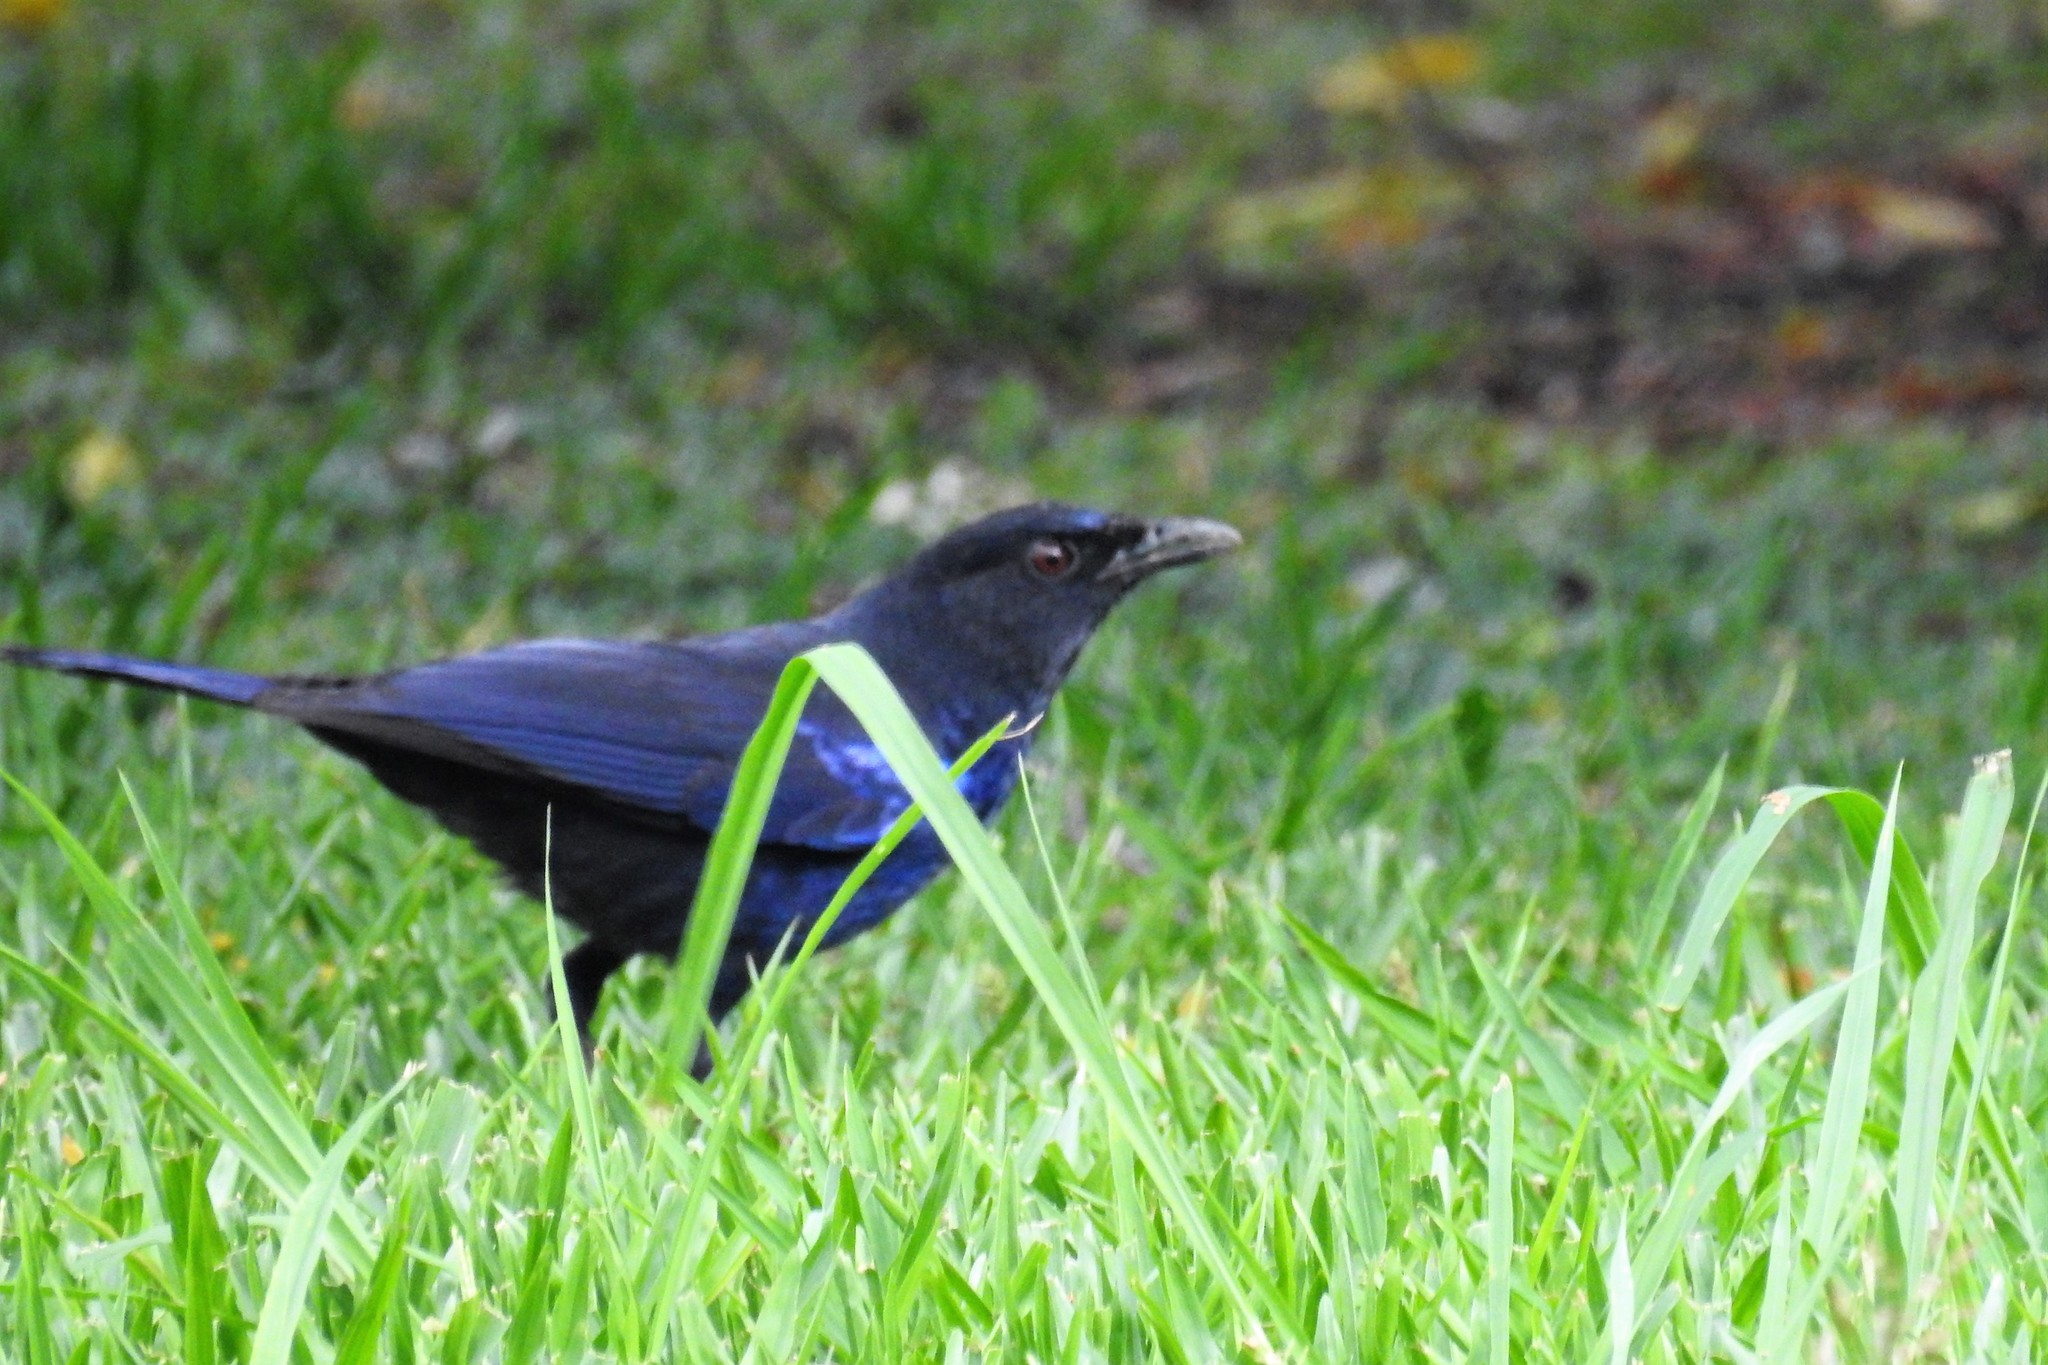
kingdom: Animalia
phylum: Chordata
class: Aves
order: Passeriformes
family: Muscicapidae
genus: Myophonus
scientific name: Myophonus insularis
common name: Taiwan whistling-thrush
